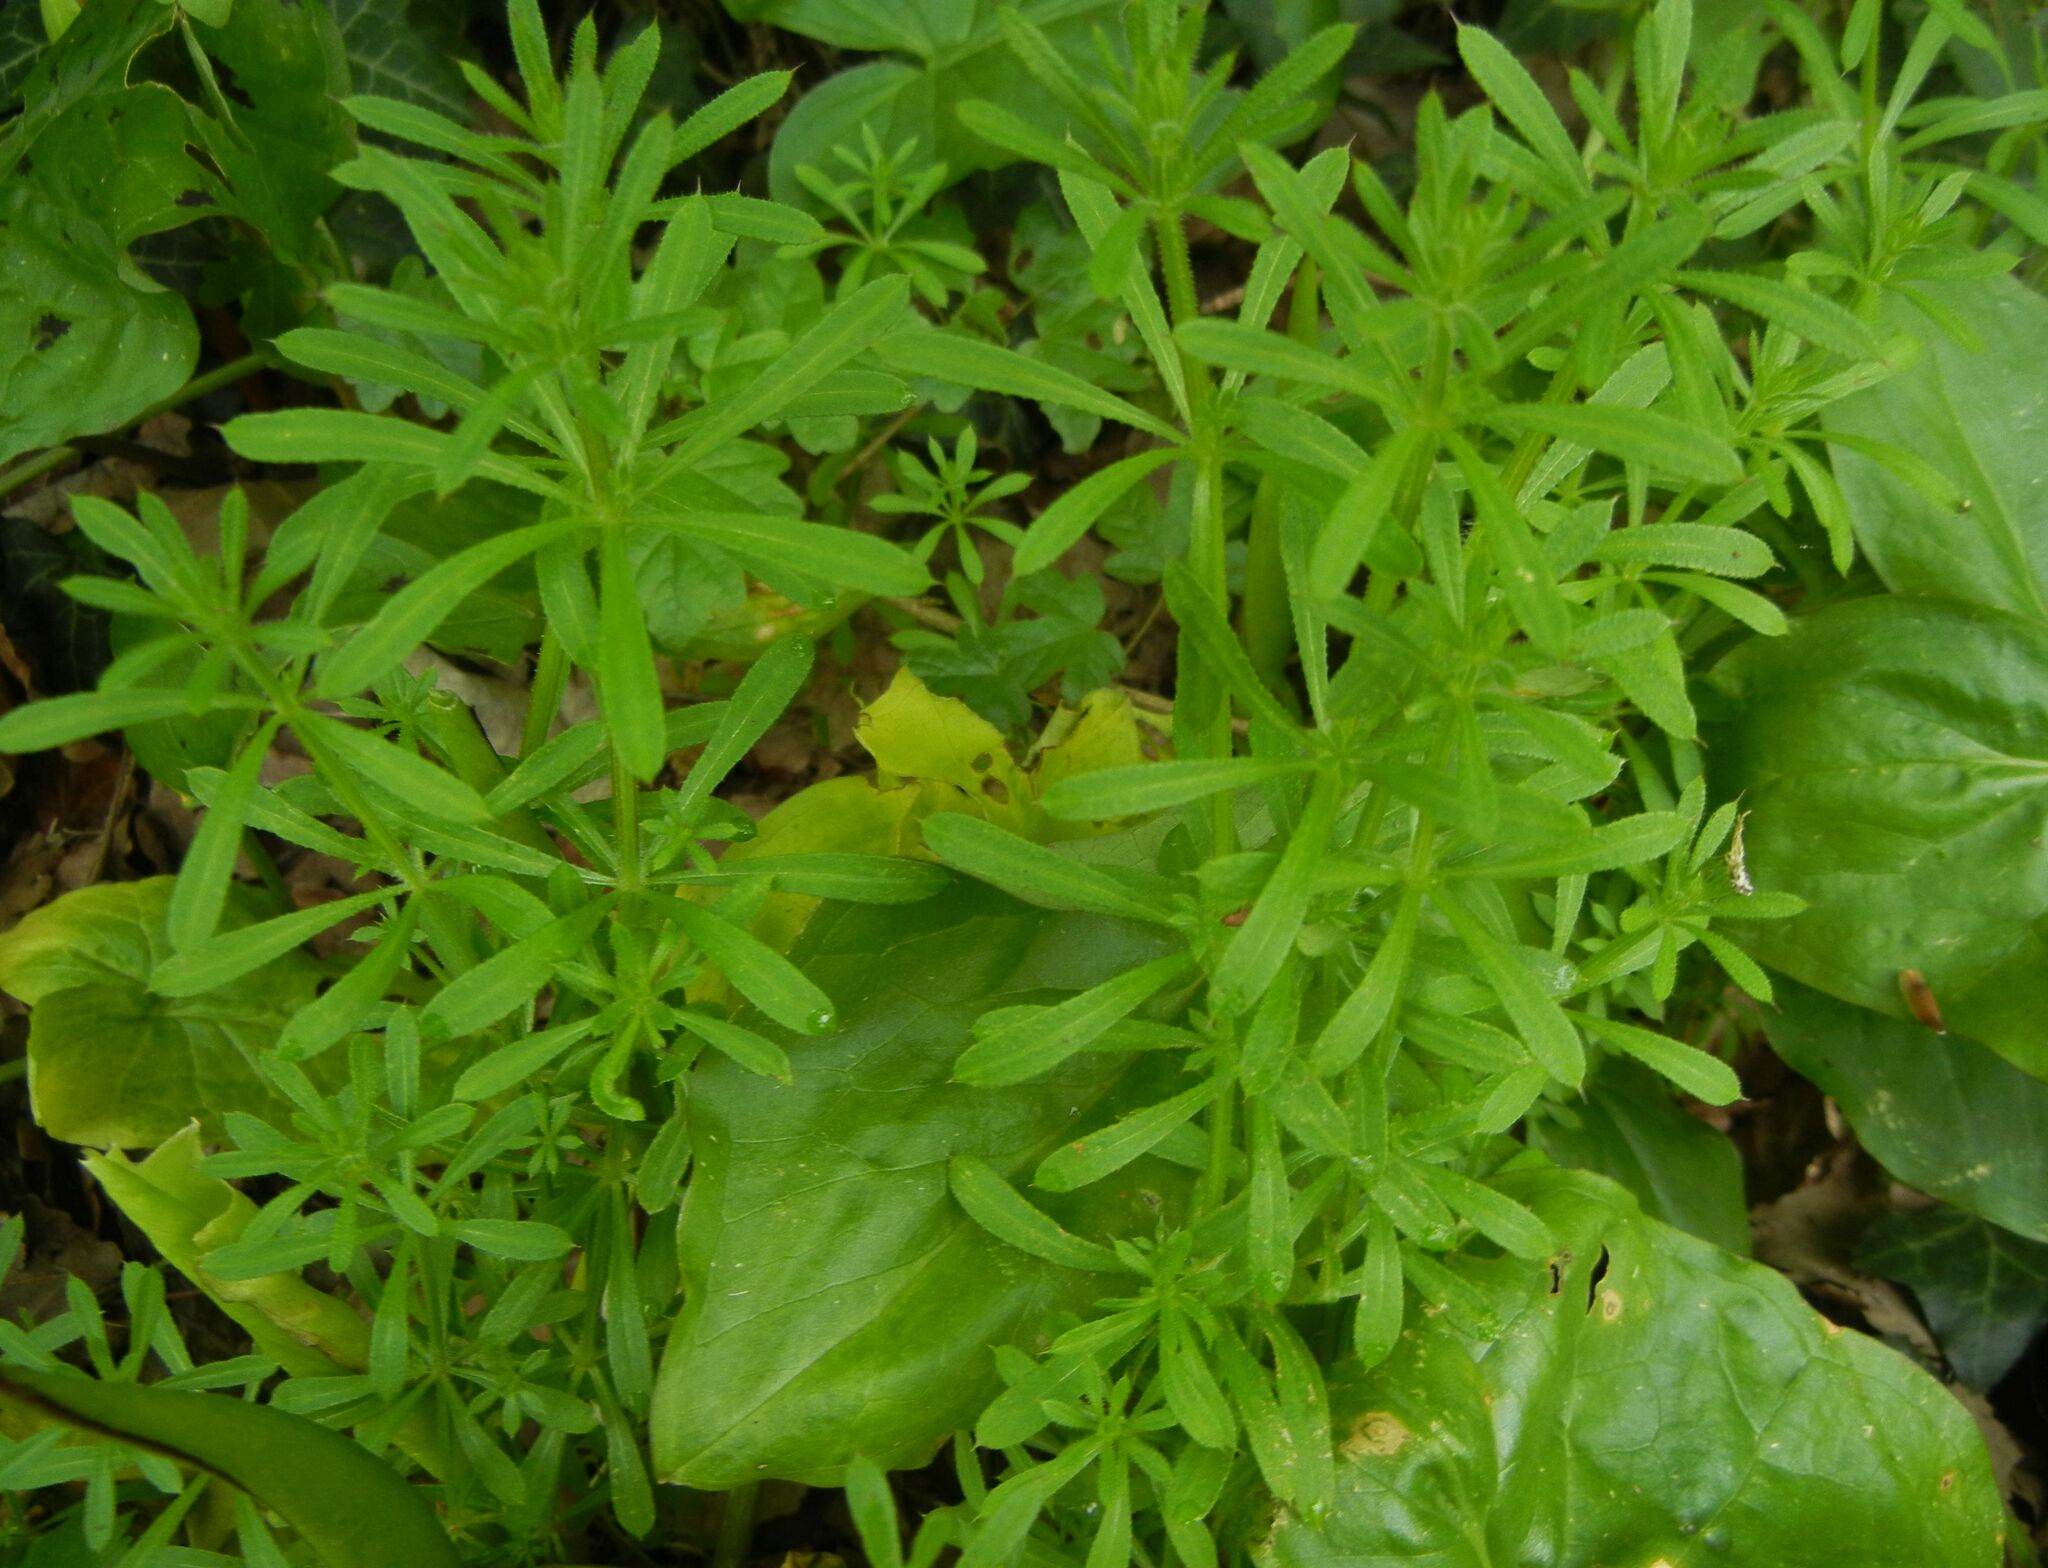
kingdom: Plantae
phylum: Tracheophyta
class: Magnoliopsida
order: Gentianales
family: Rubiaceae
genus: Galium
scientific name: Galium aparine
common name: Cleavers
